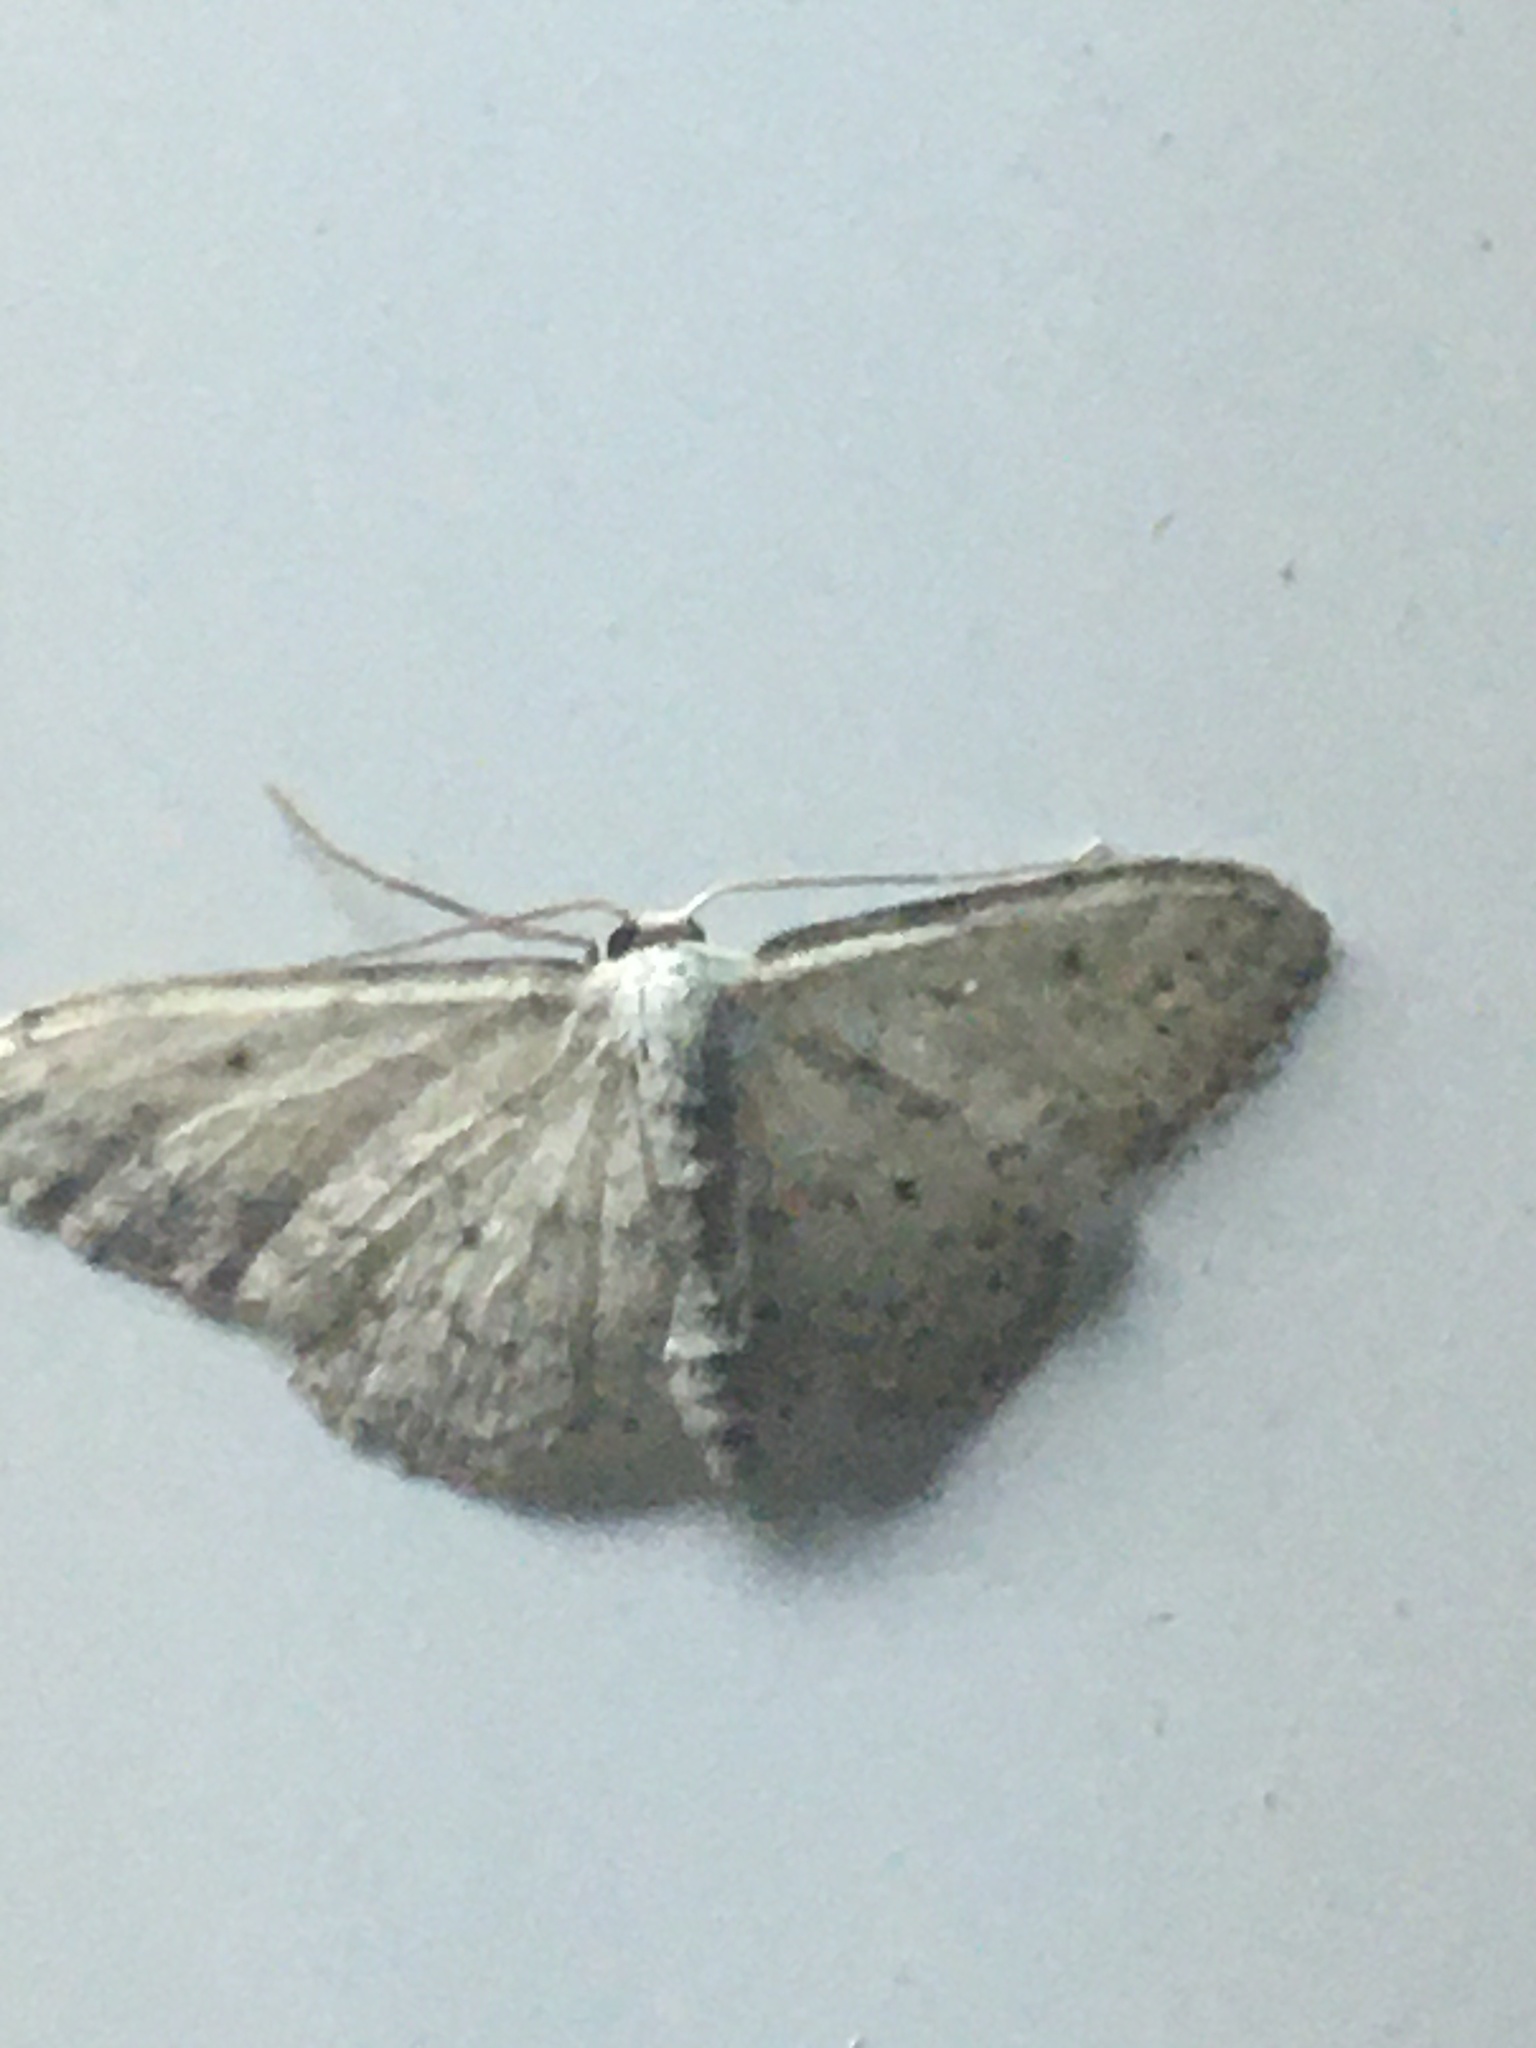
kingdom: Animalia
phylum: Arthropoda
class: Insecta
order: Lepidoptera
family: Geometridae
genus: Idaea
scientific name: Idaea seriata
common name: Small dusty wave
